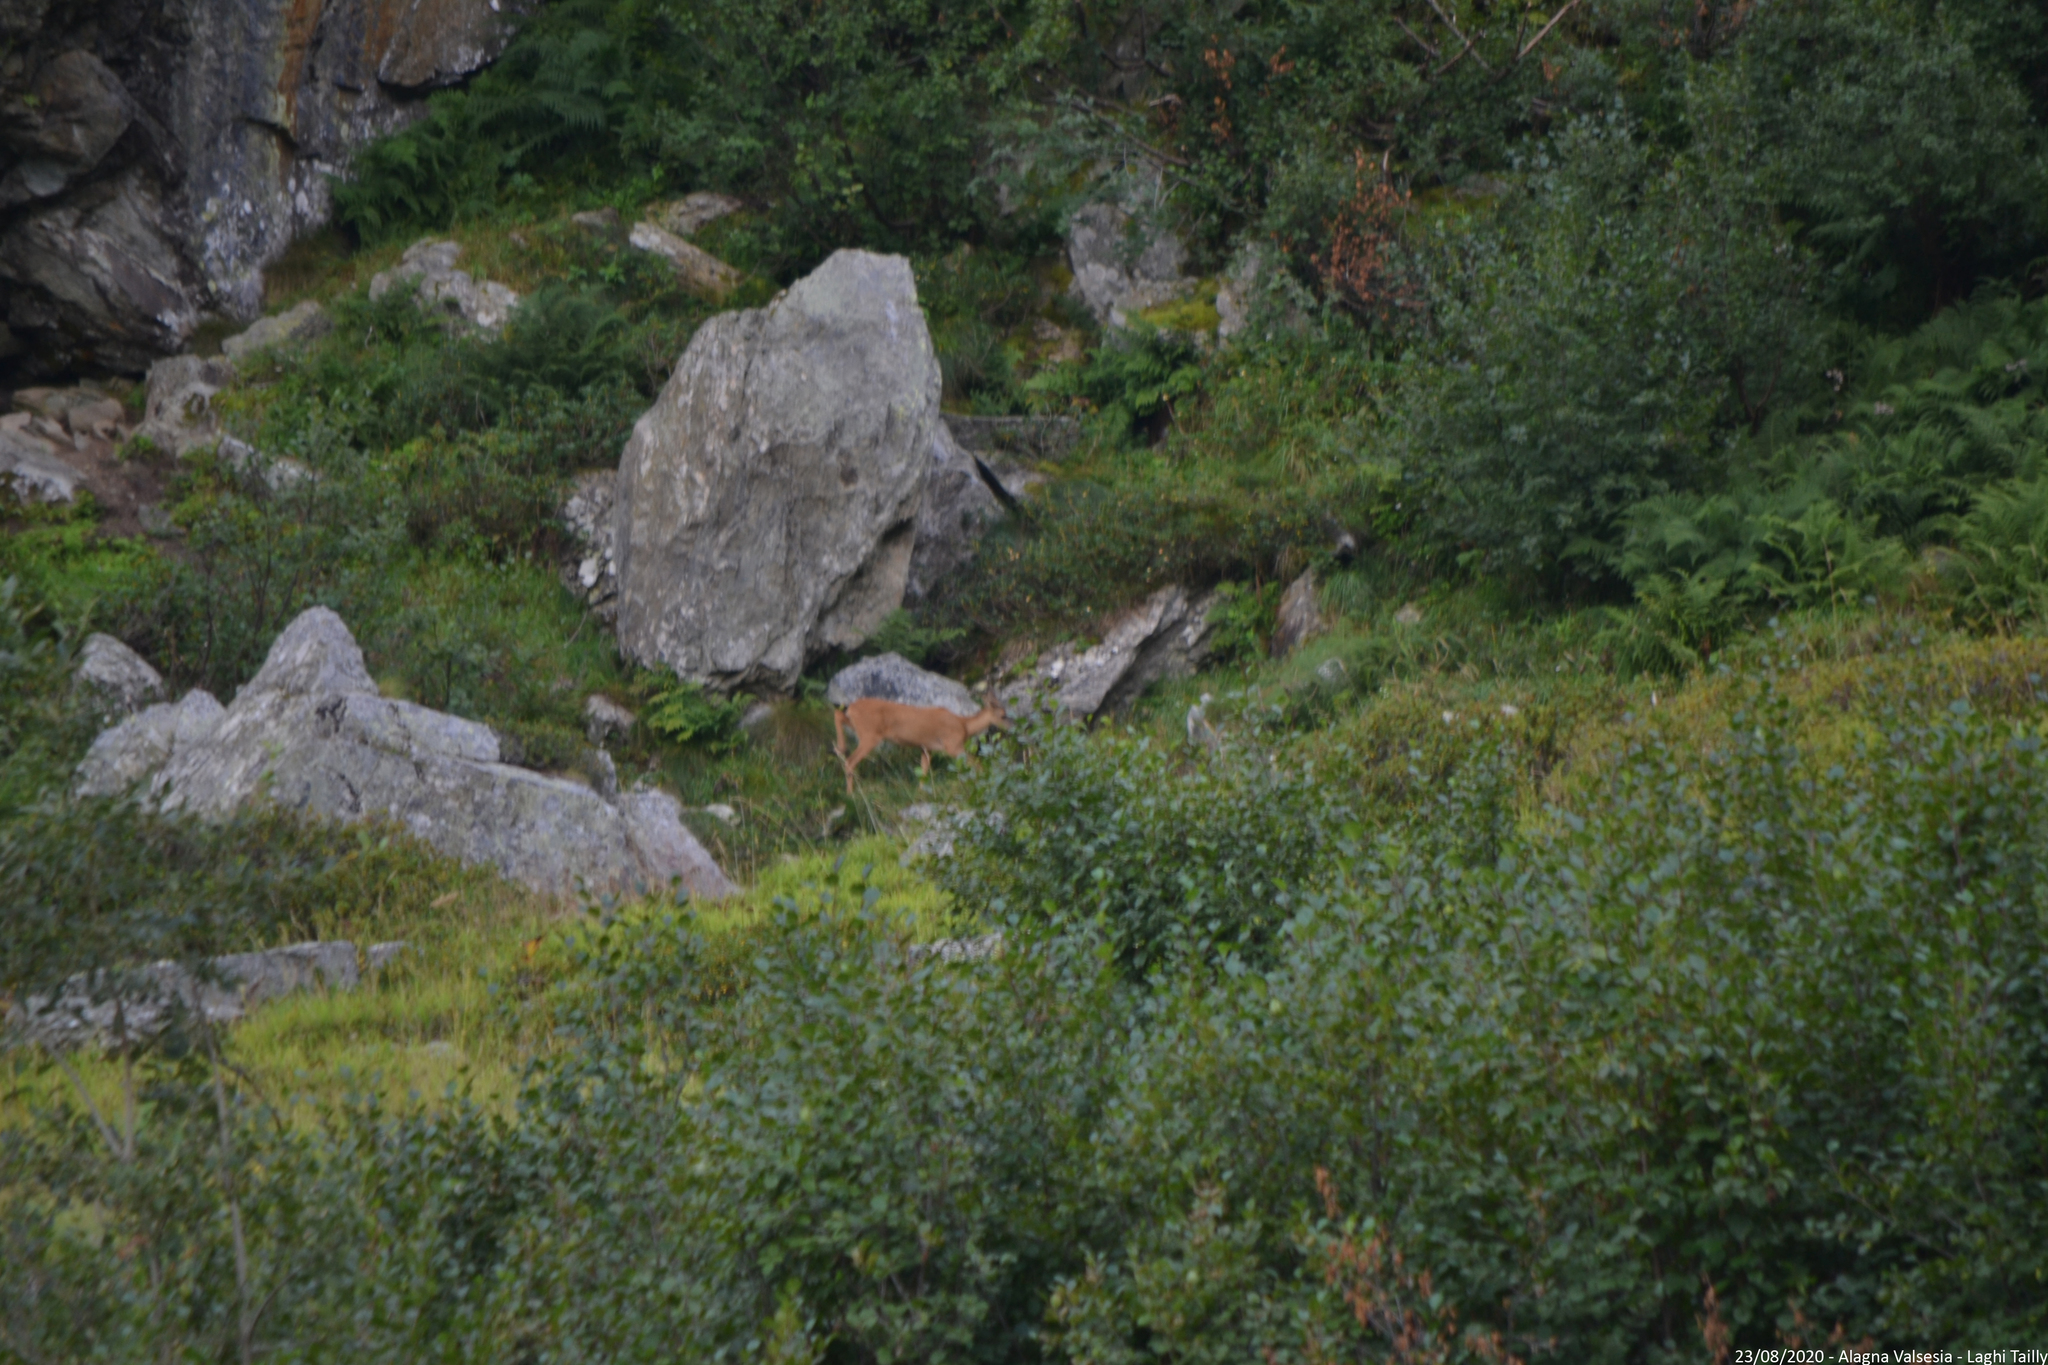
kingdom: Animalia
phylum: Chordata
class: Mammalia
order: Artiodactyla
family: Cervidae
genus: Capreolus
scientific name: Capreolus capreolus
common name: Western roe deer
